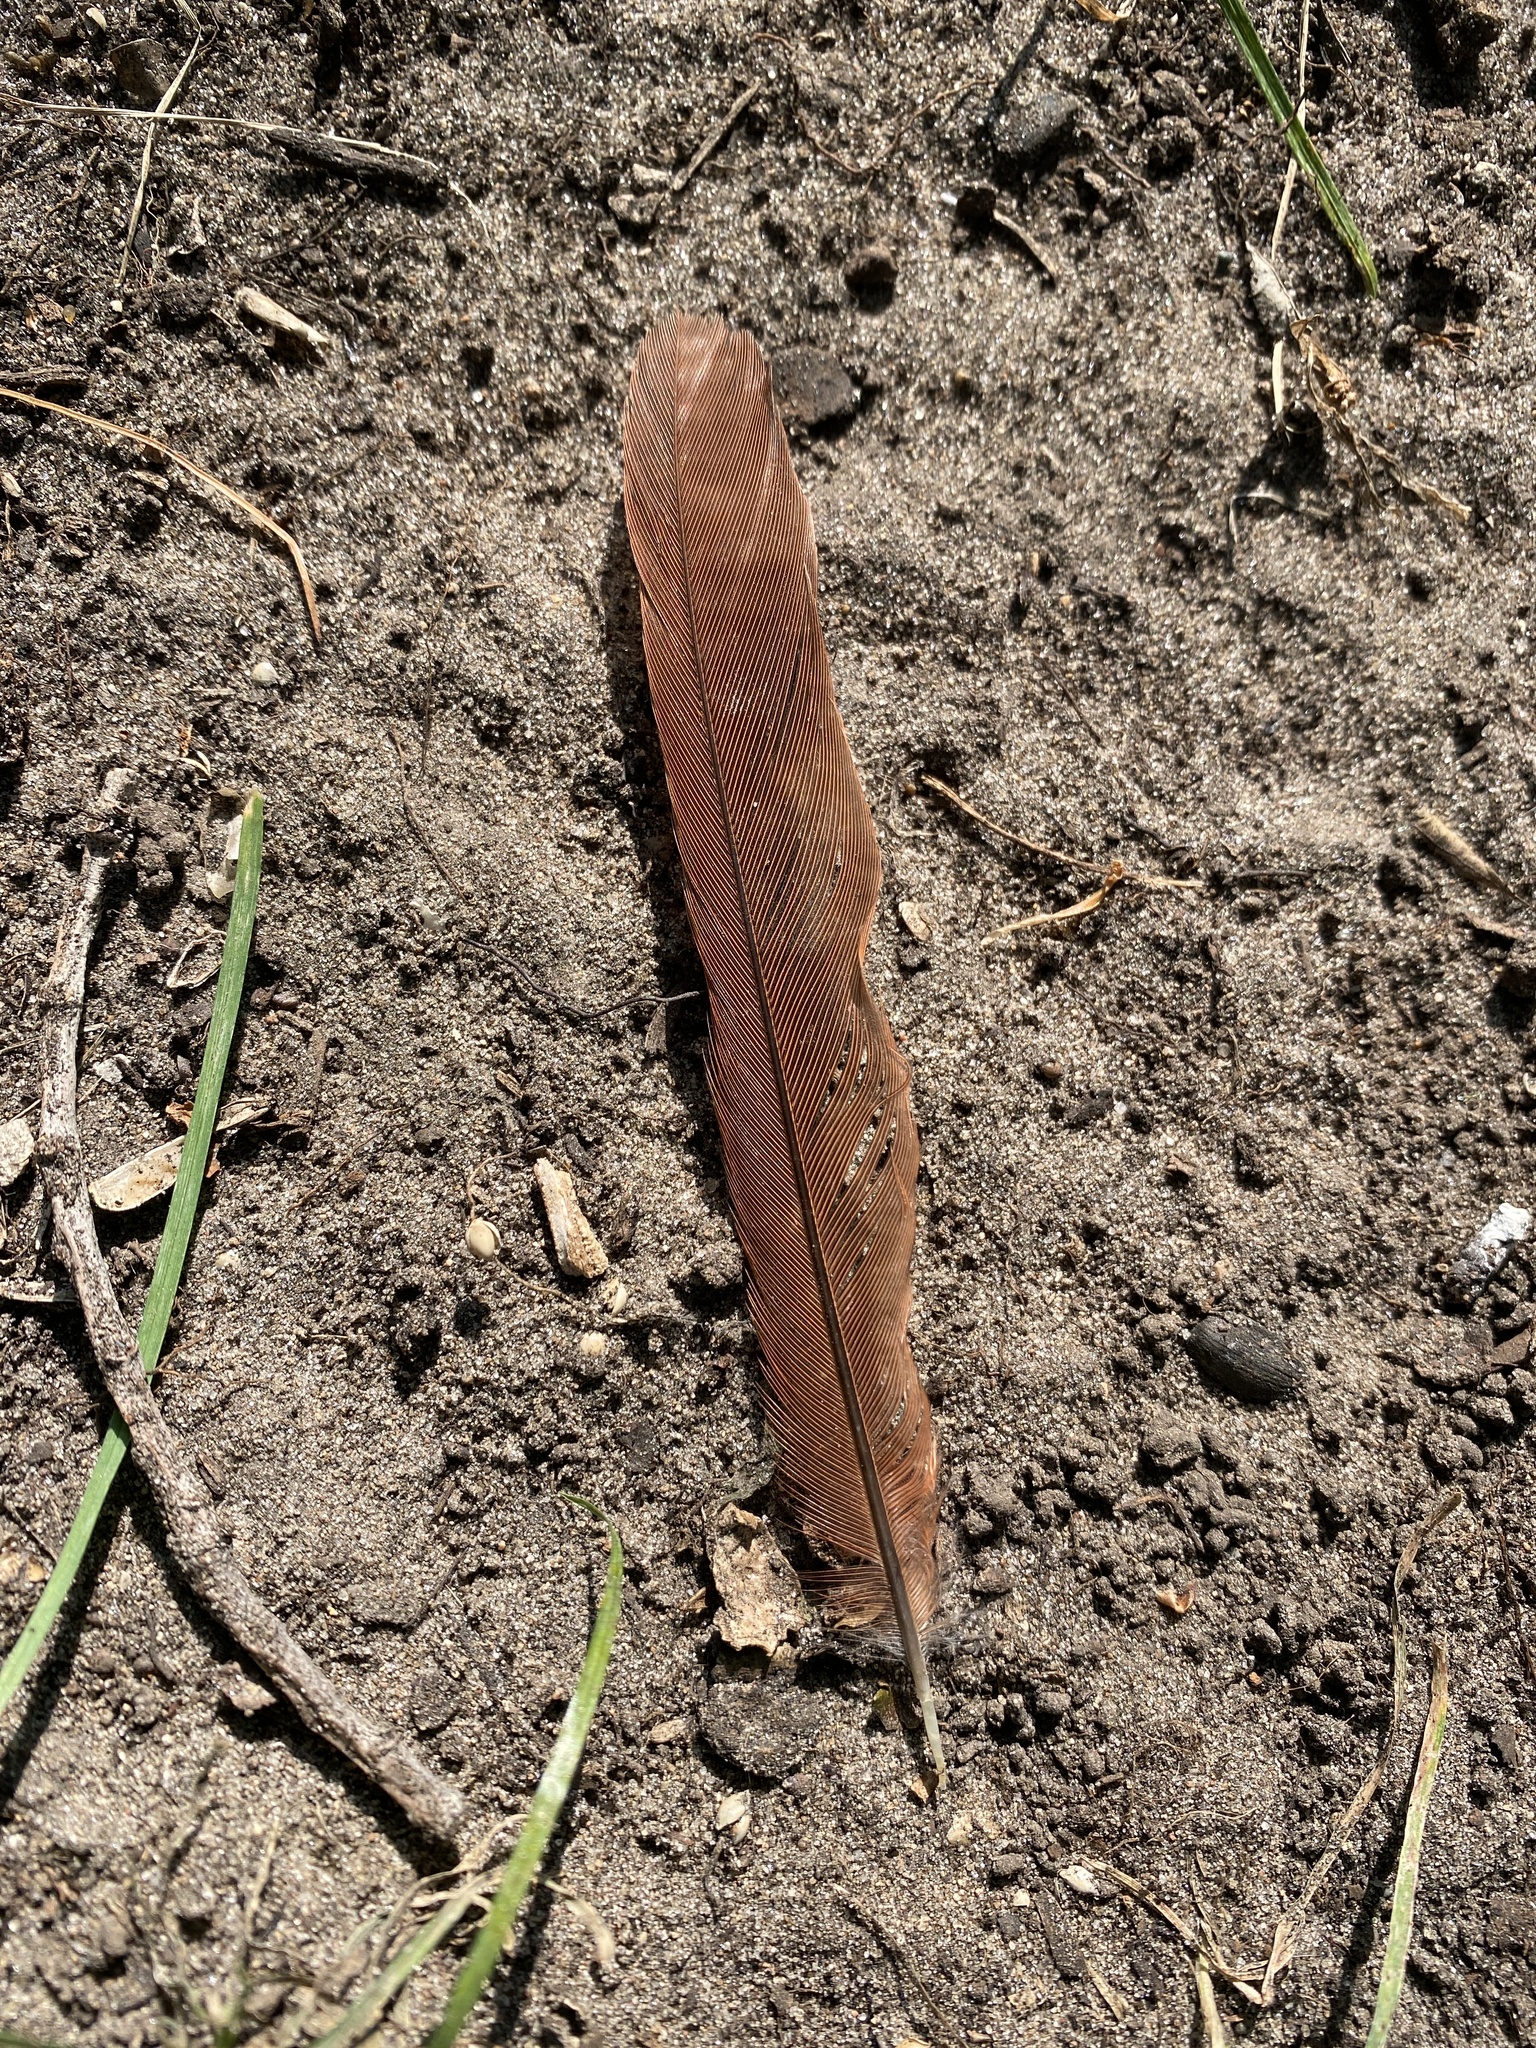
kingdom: Animalia
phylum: Chordata
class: Aves
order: Passeriformes
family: Cardinalidae
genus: Cardinalis
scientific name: Cardinalis cardinalis
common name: Northern cardinal
